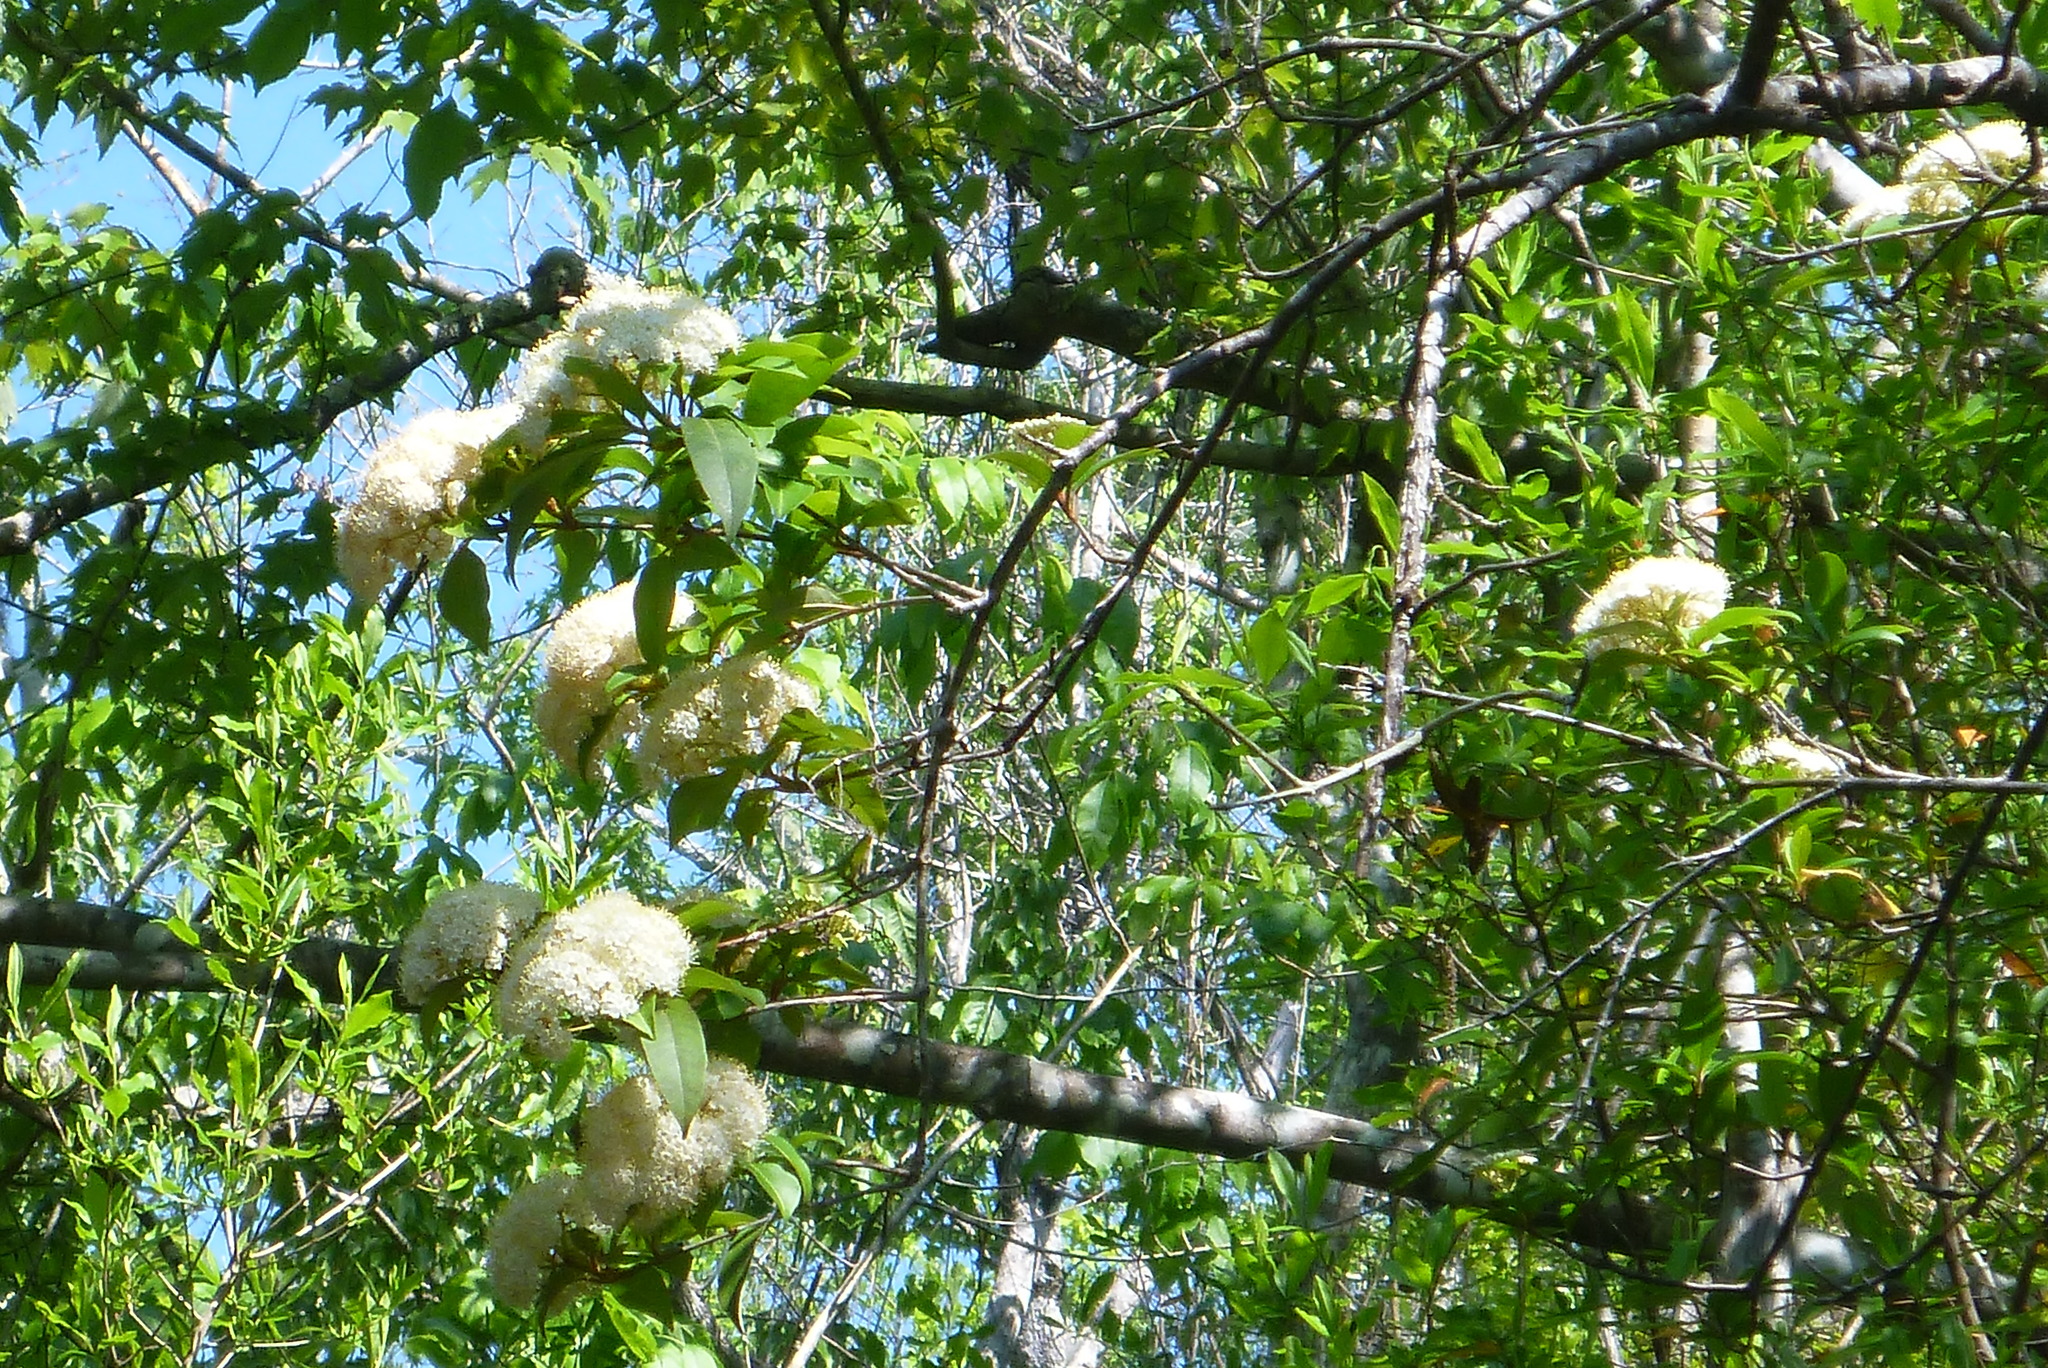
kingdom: Plantae
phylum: Tracheophyta
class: Magnoliopsida
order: Dipsacales
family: Viburnaceae
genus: Viburnum
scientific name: Viburnum nudum
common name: Possum haw
